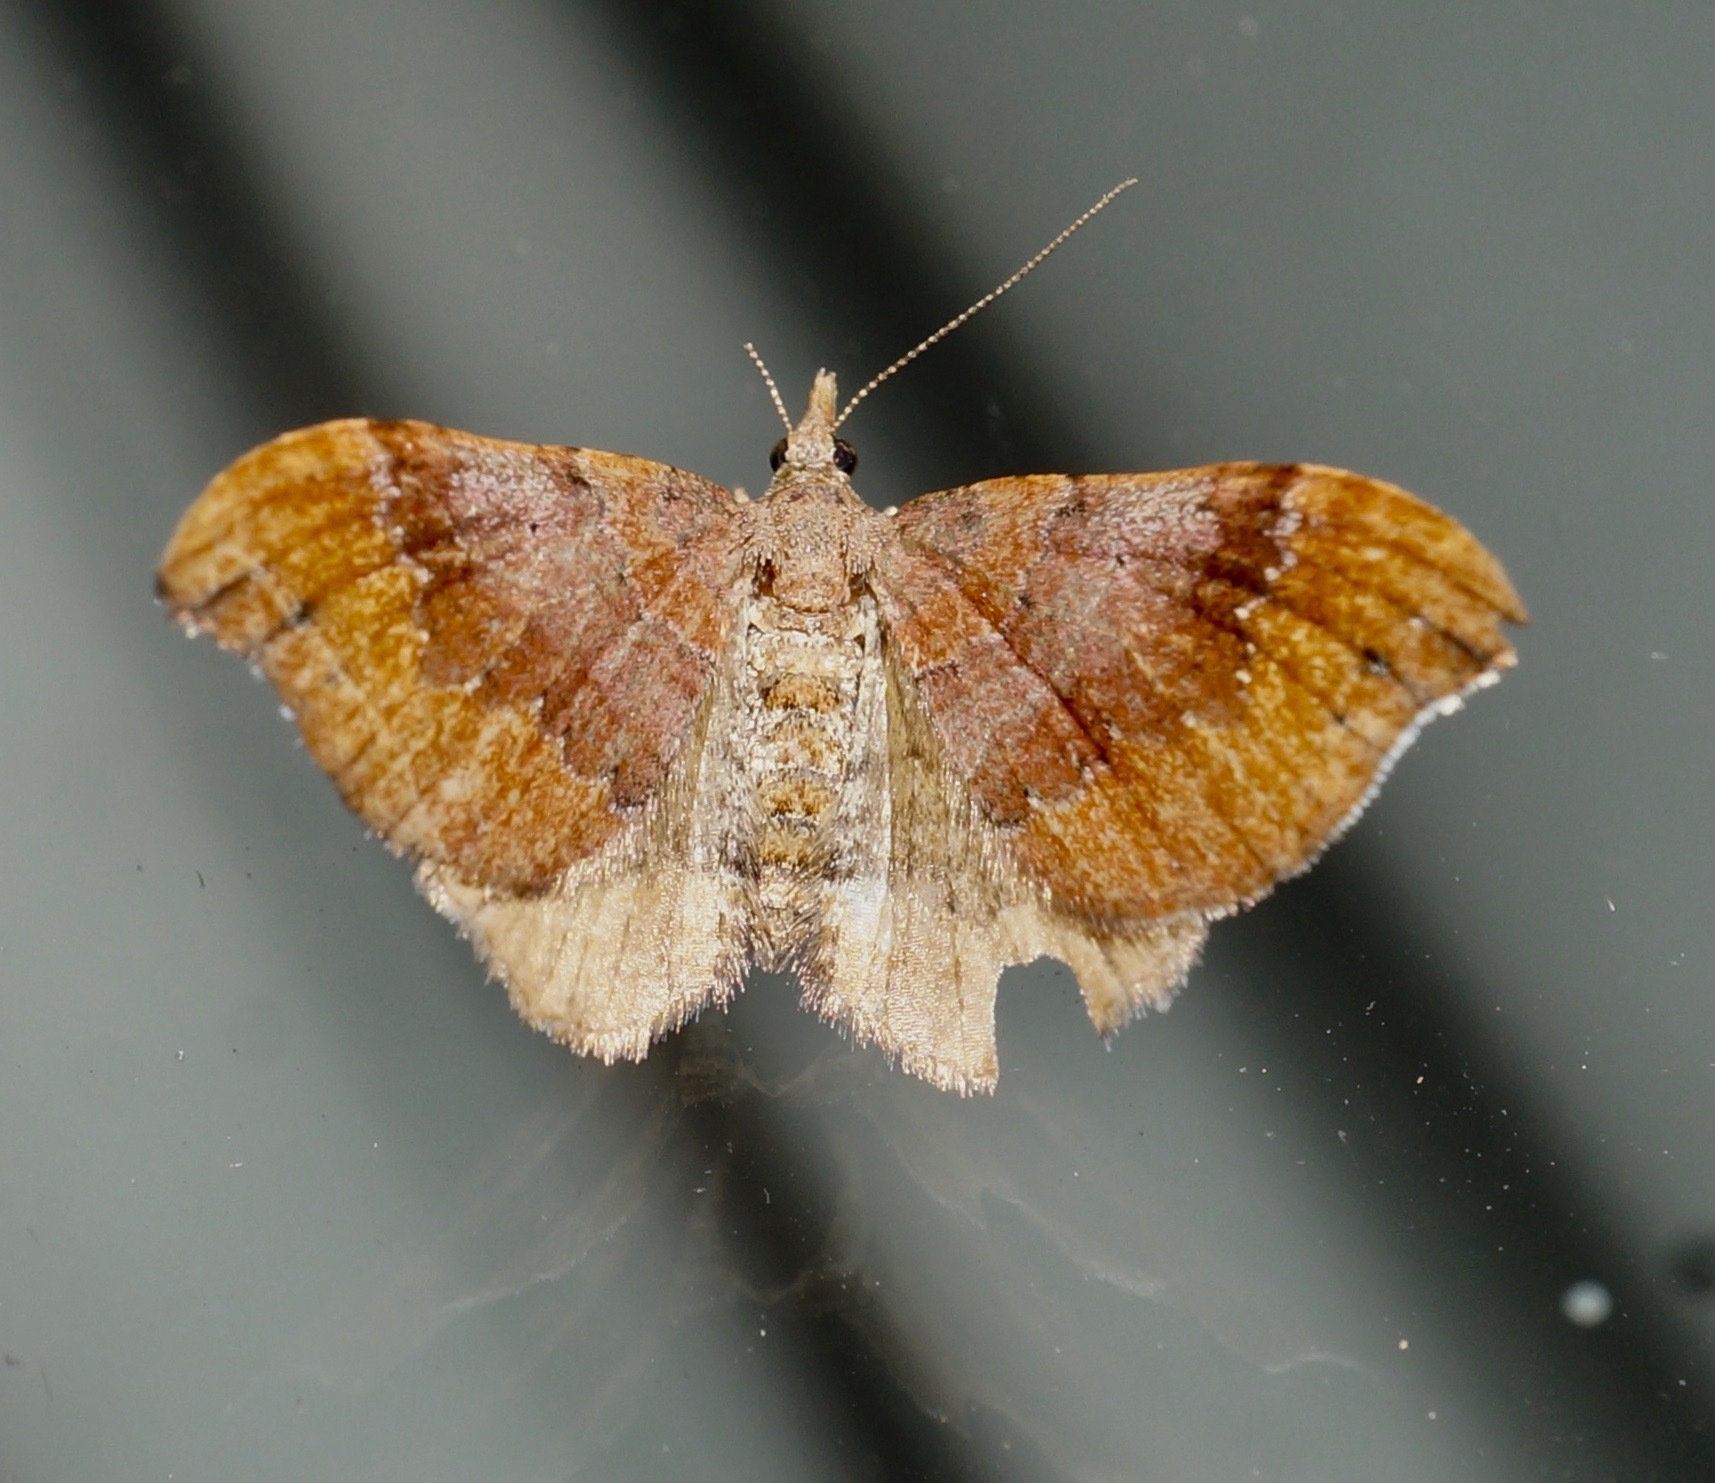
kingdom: Animalia
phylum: Arthropoda
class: Insecta
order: Lepidoptera
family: Geometridae
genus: Homodotis
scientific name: Homodotis megaspilata
